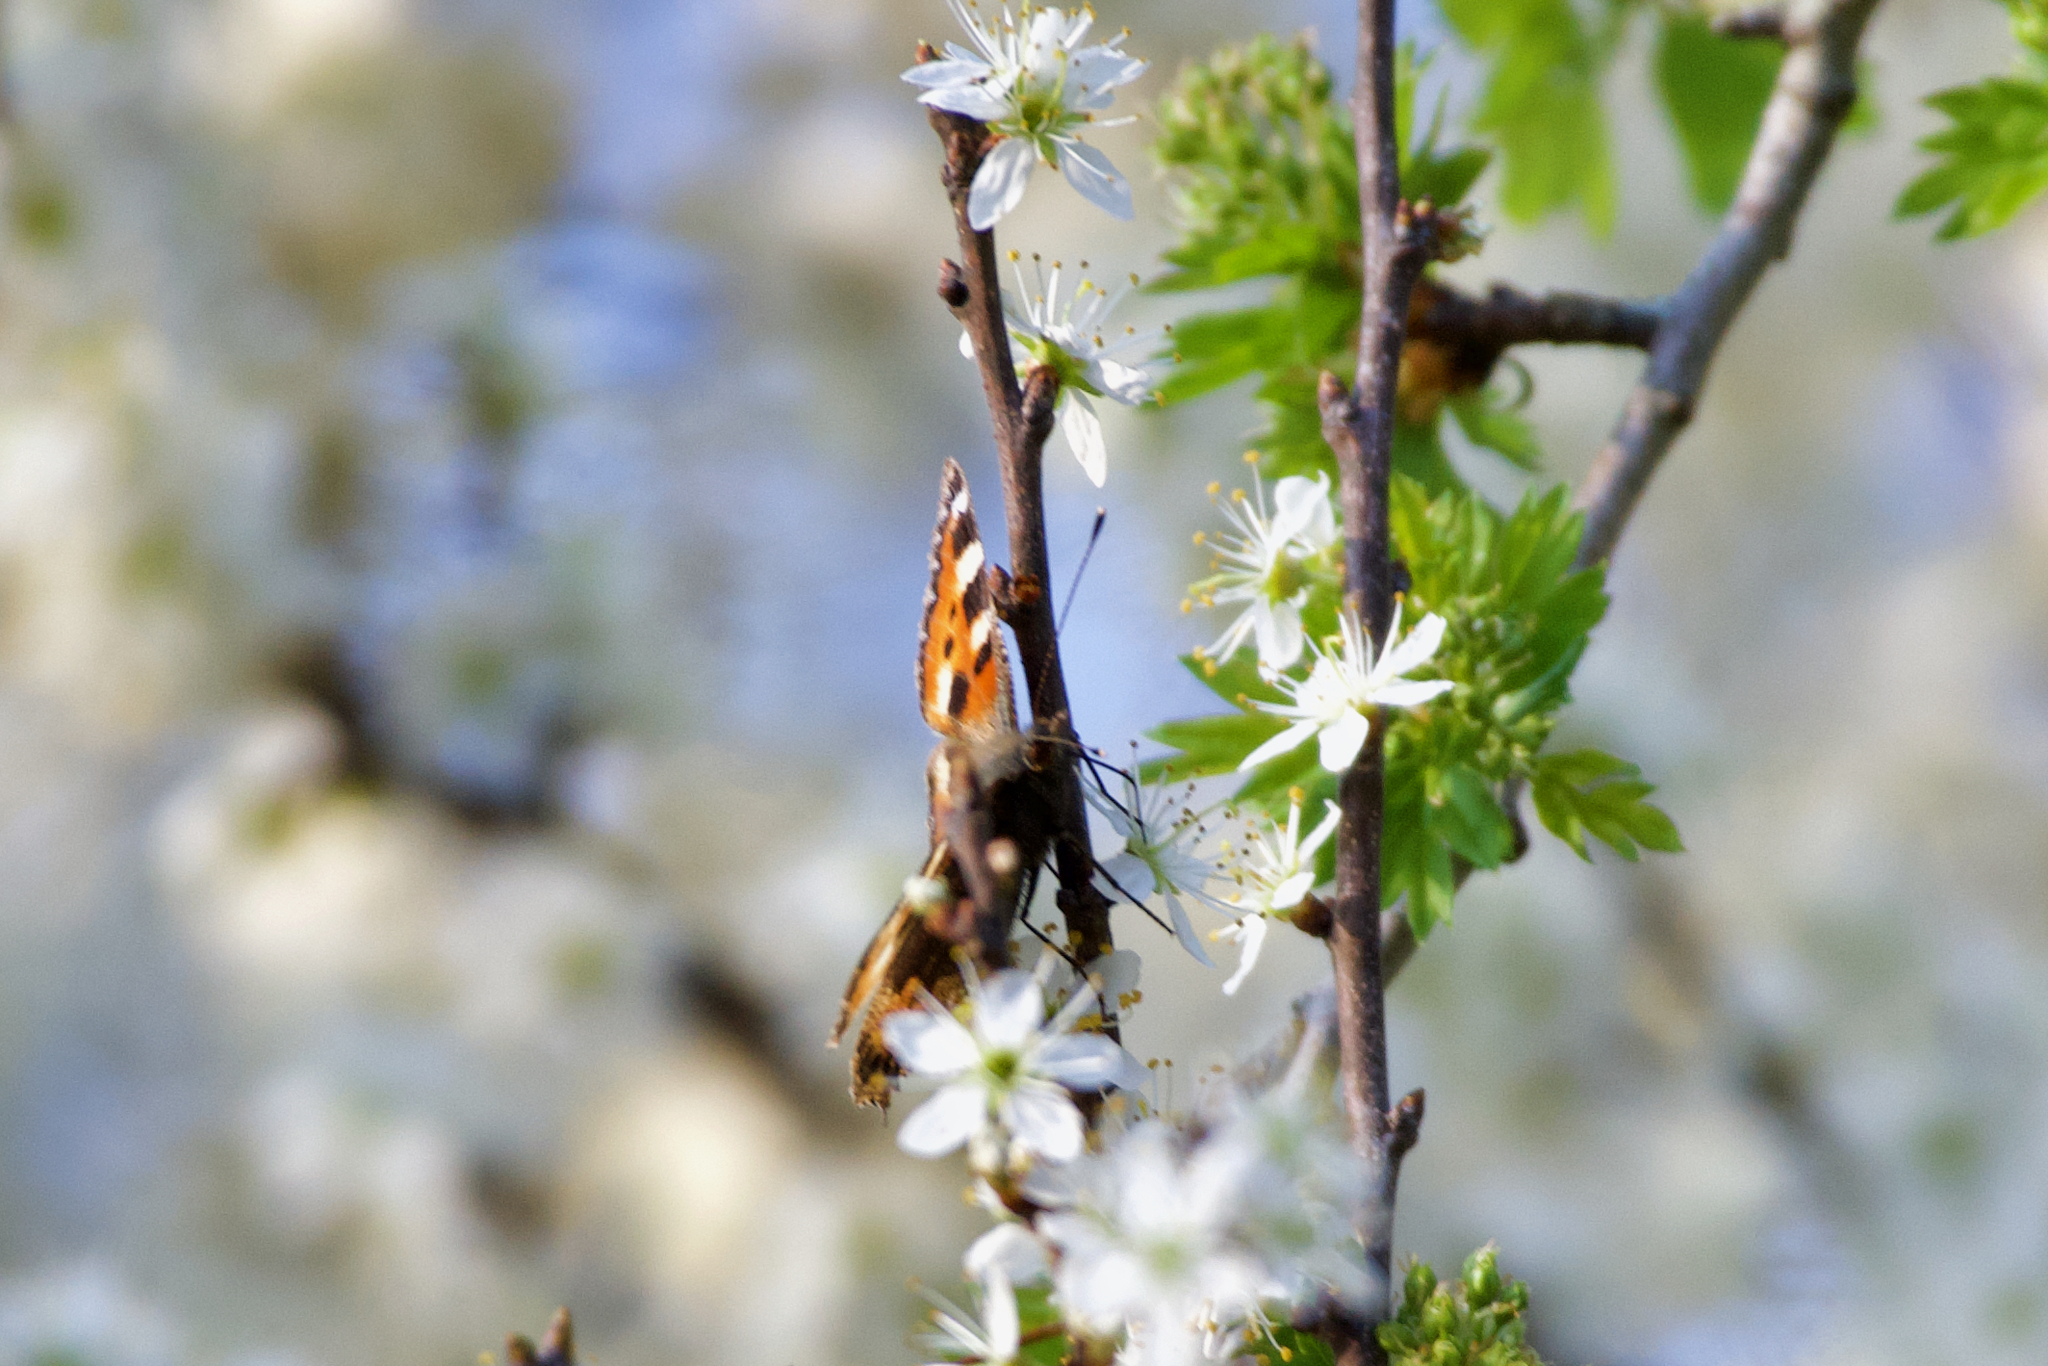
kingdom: Animalia
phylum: Arthropoda
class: Insecta
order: Lepidoptera
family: Nymphalidae
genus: Aglais
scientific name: Aglais urticae
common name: Small tortoiseshell
